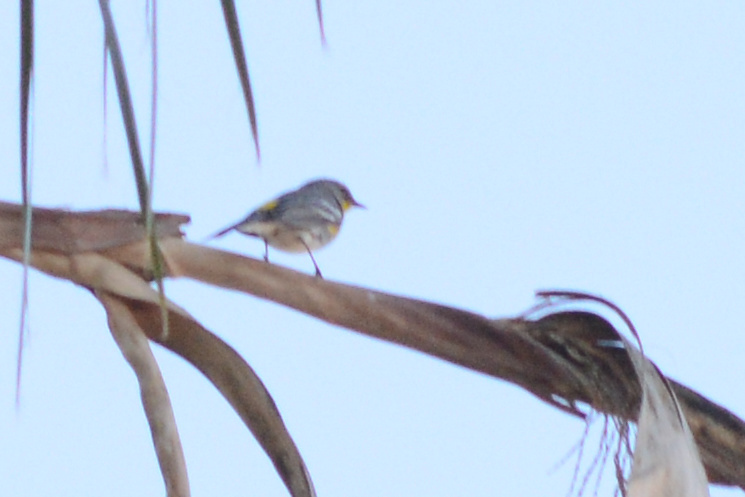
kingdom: Animalia
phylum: Chordata
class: Aves
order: Passeriformes
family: Parulidae
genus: Setophaga
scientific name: Setophaga auduboni
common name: Audubon's warbler
